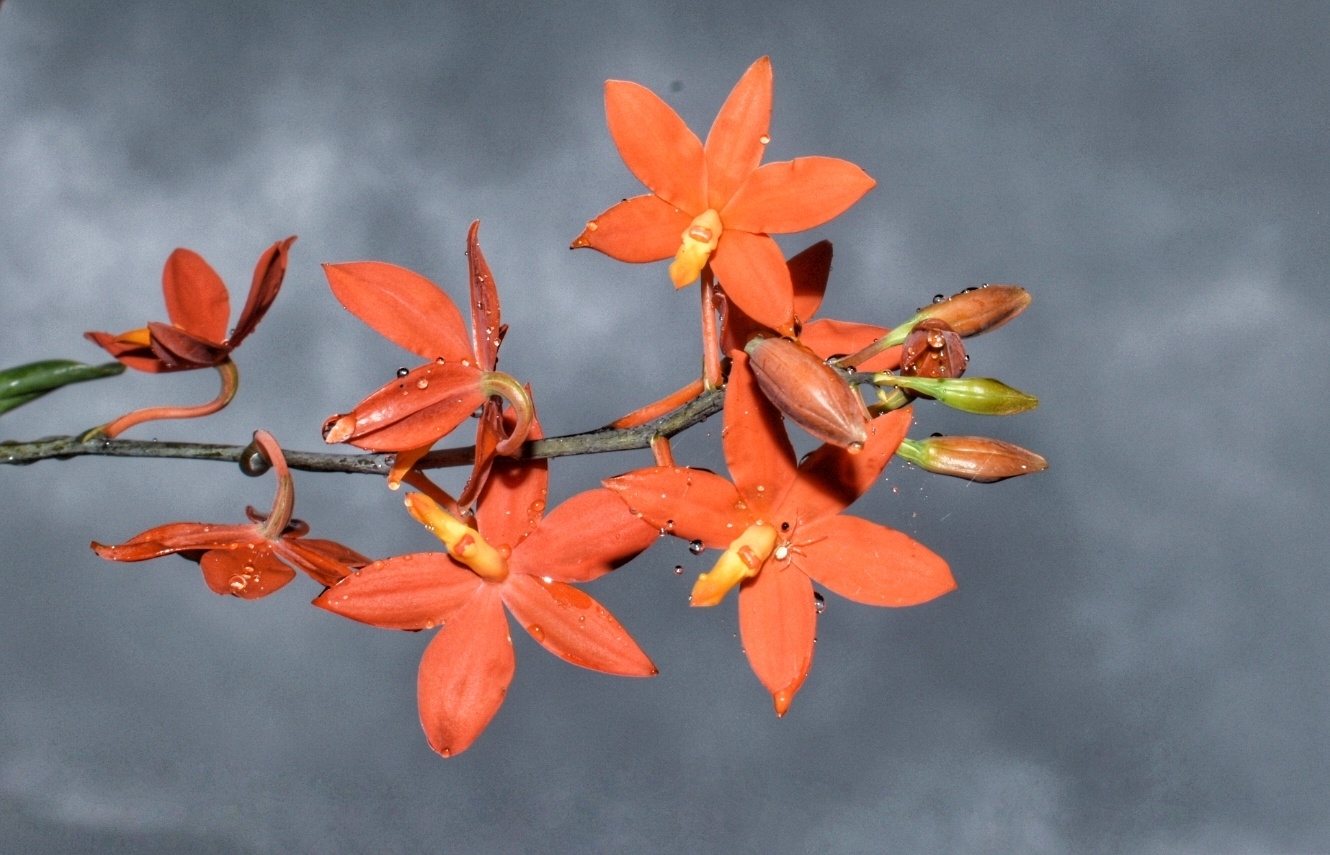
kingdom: Plantae
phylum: Tracheophyta
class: Liliopsida
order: Asparagales
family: Orchidaceae
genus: Prosthechea
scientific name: Prosthechea vitellina
